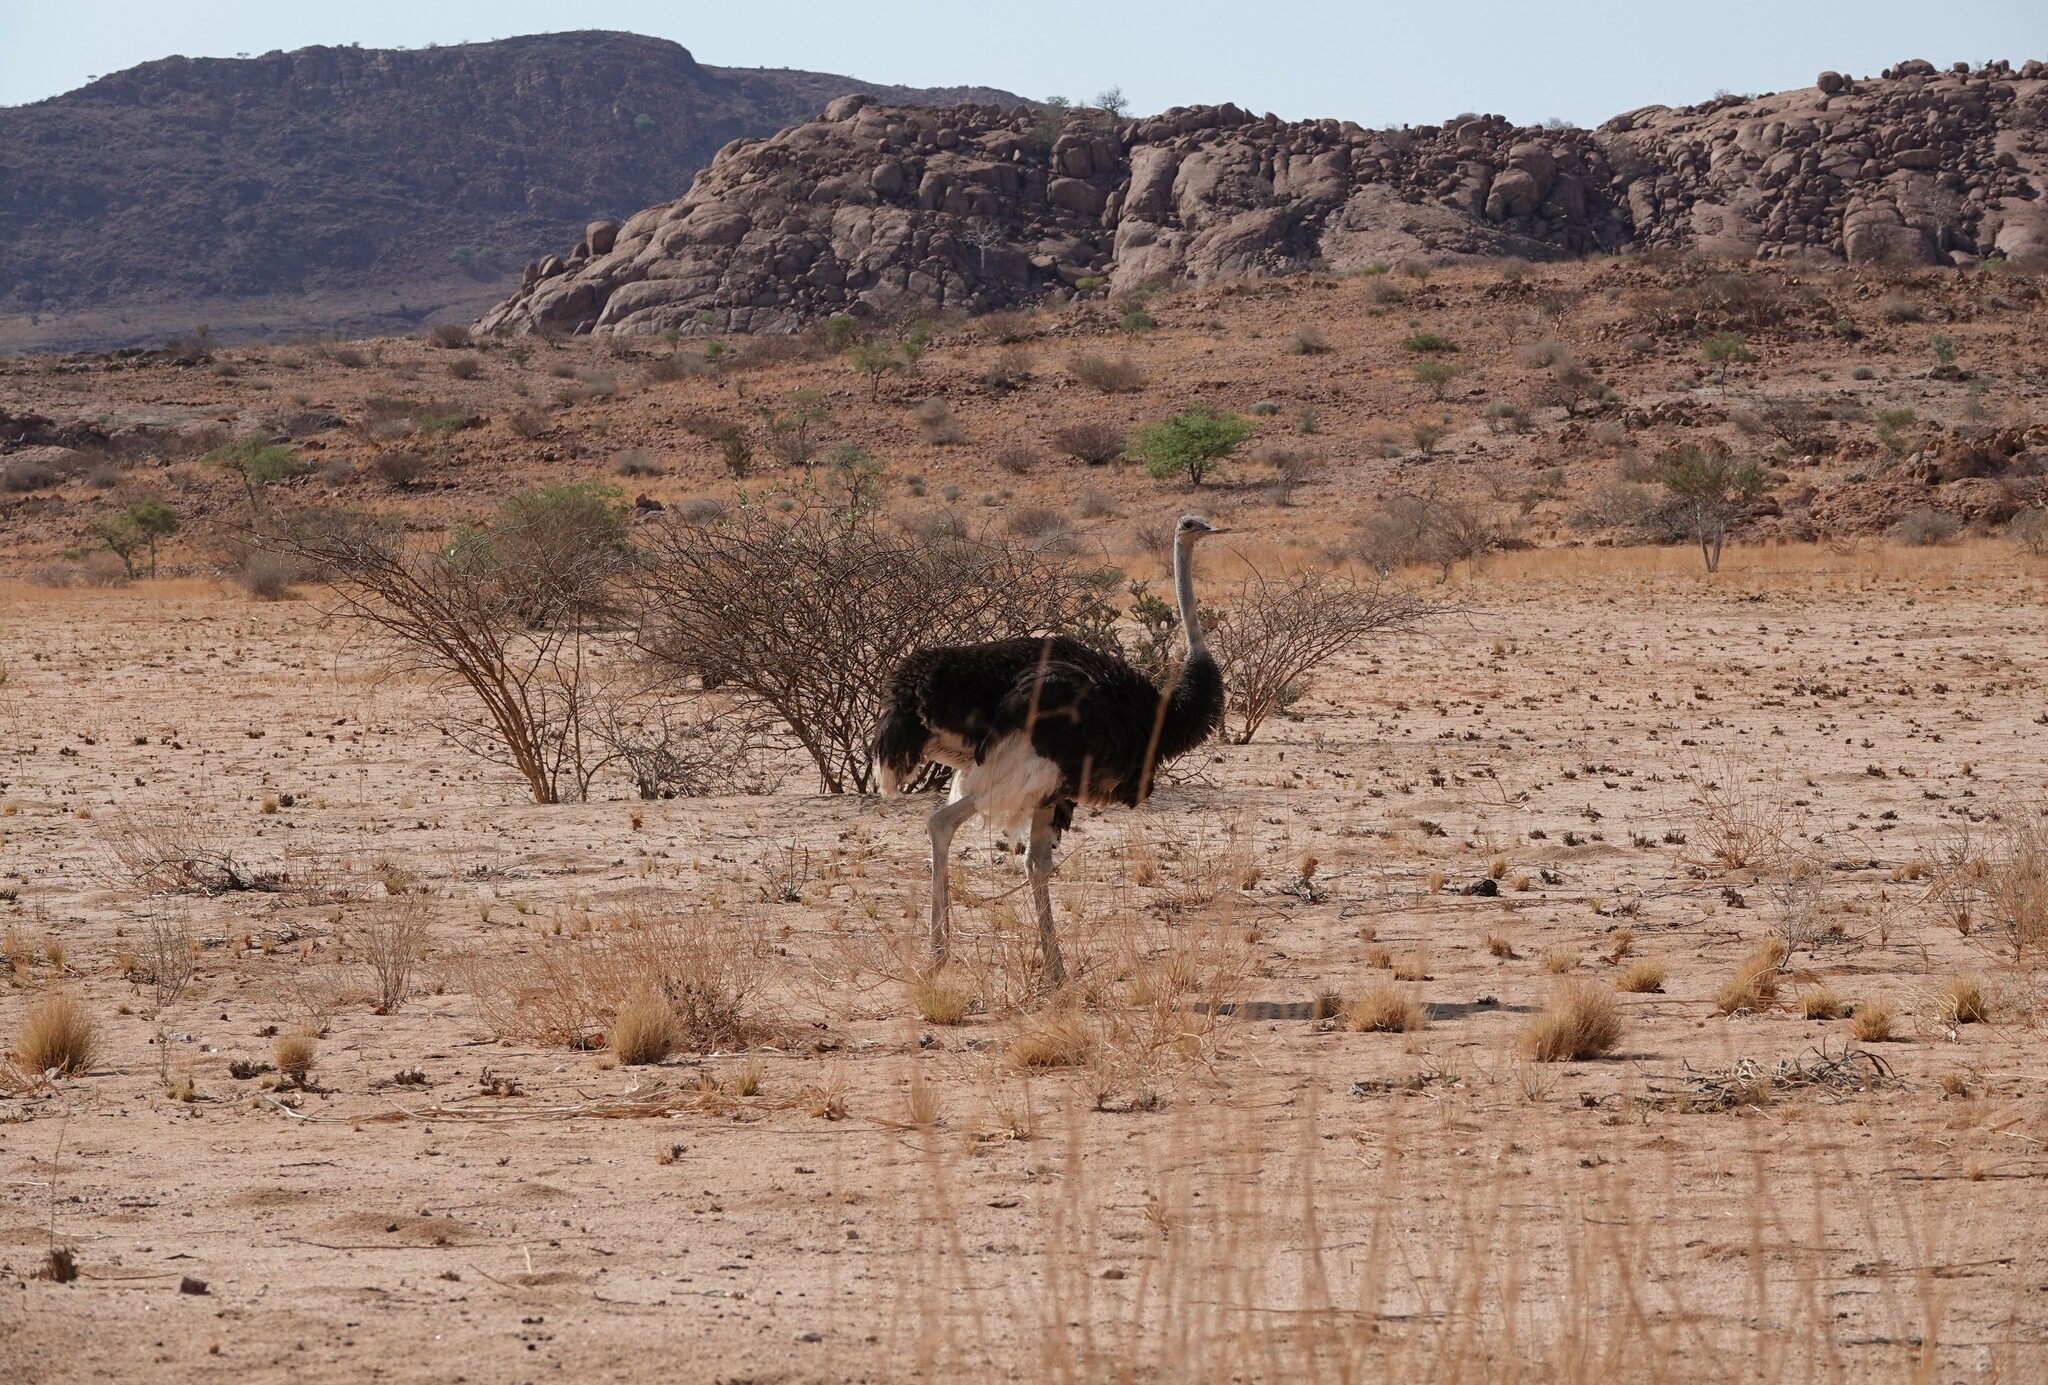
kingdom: Animalia
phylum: Chordata
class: Aves
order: Struthioniformes
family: Struthionidae
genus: Struthio
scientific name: Struthio camelus
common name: Common ostrich
